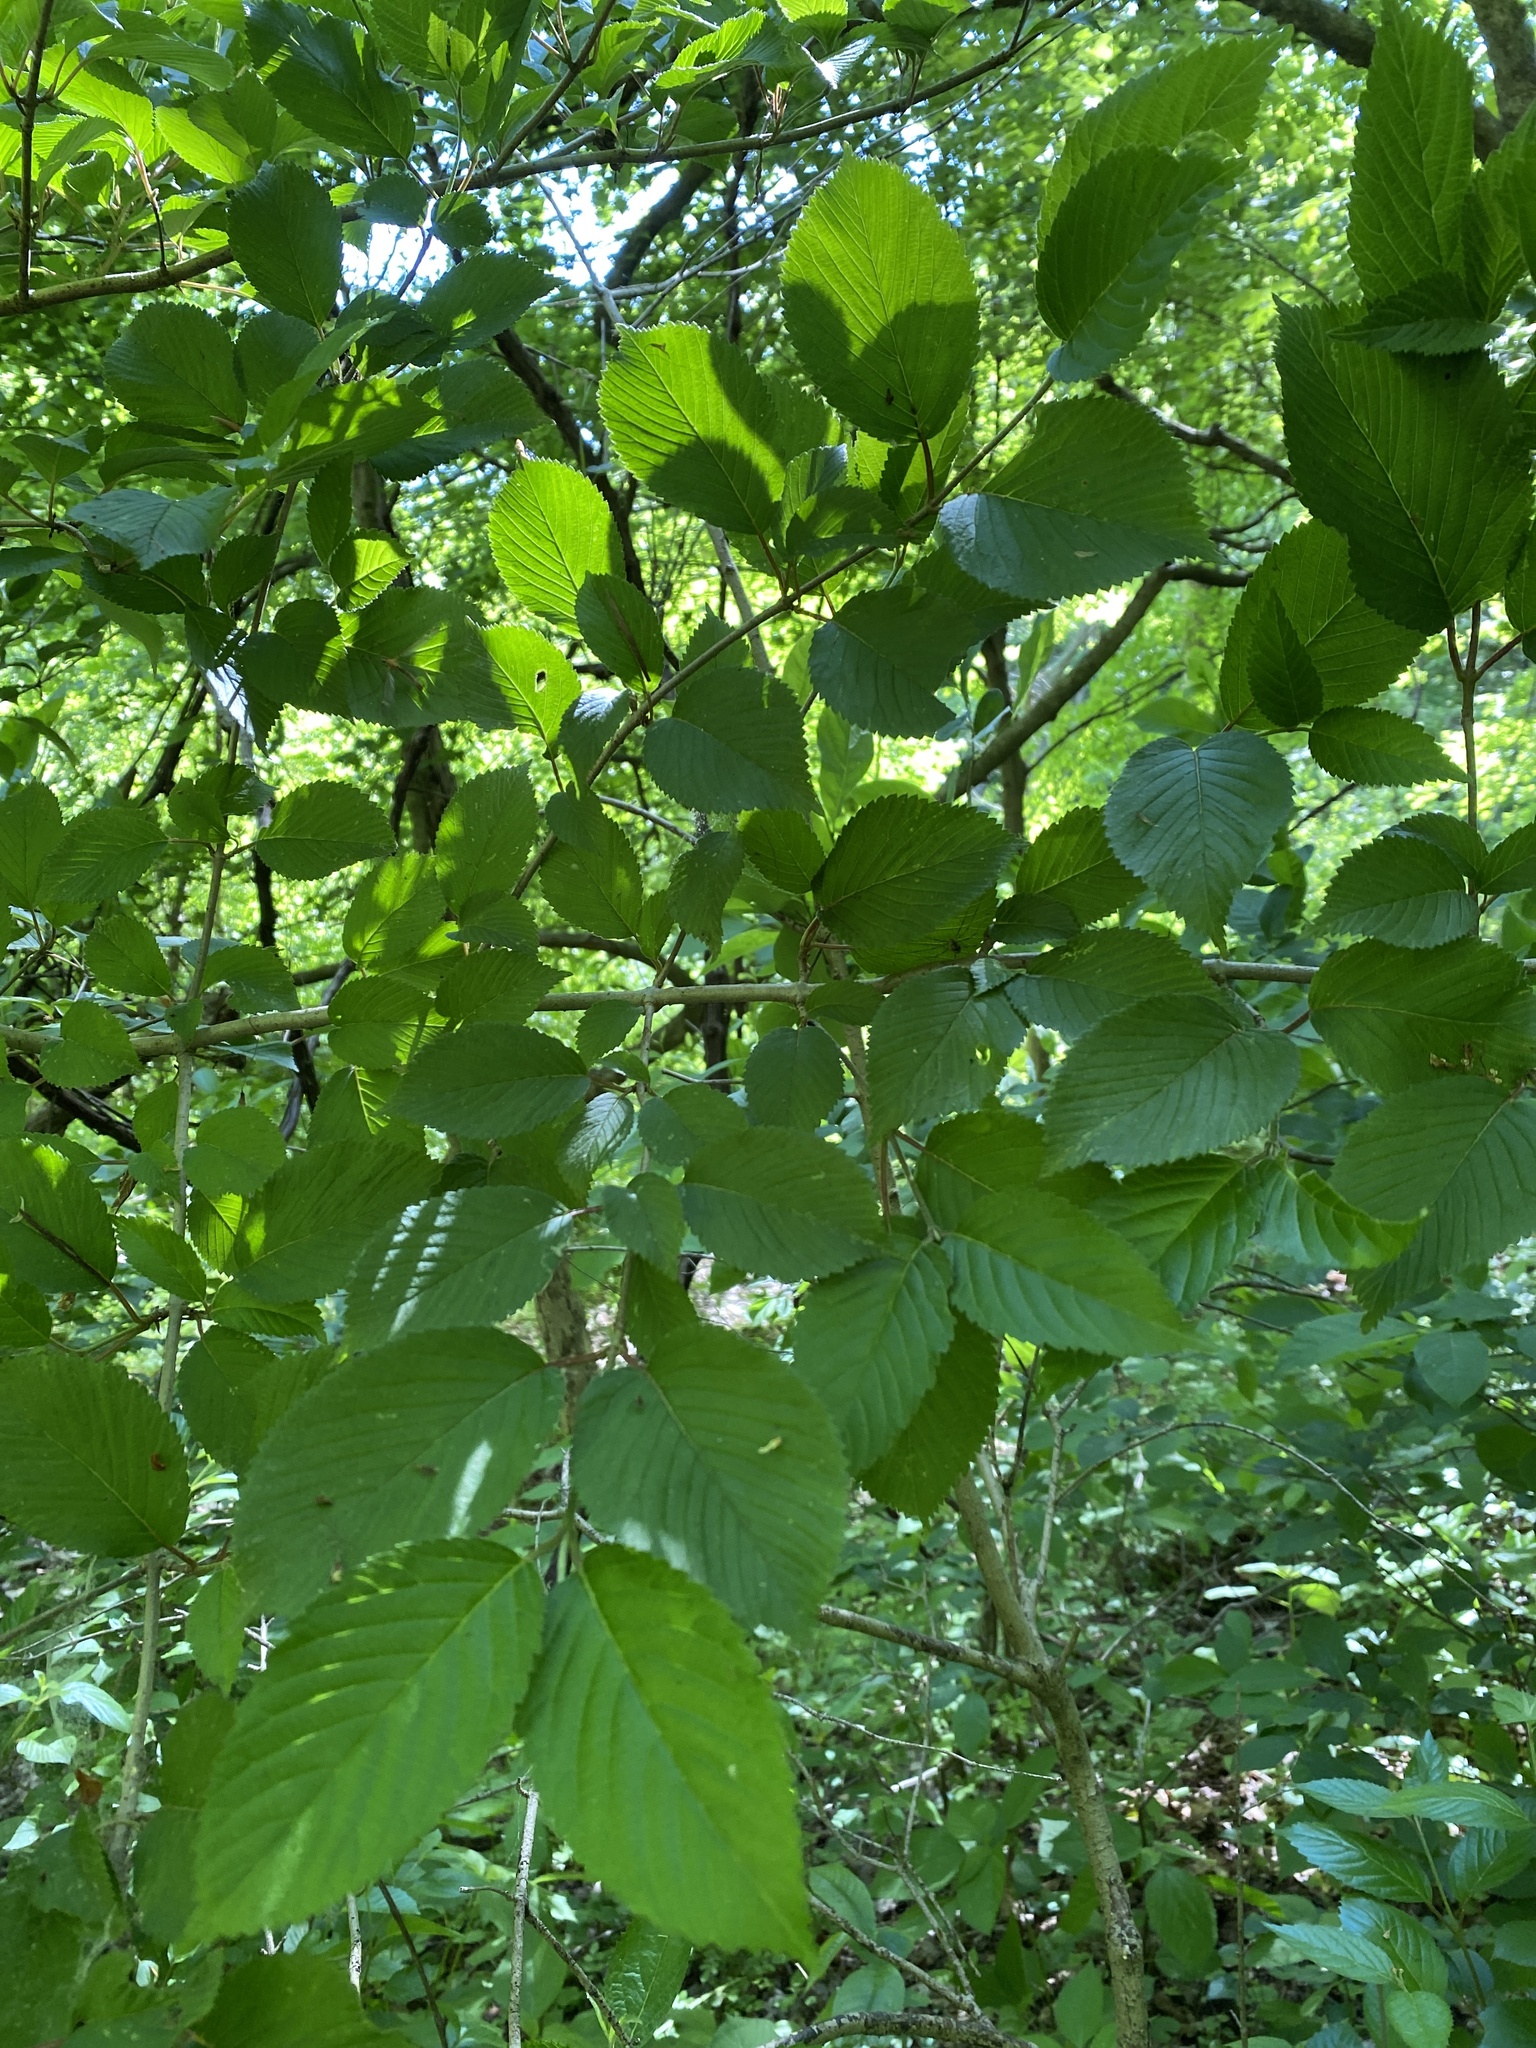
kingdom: Plantae
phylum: Tracheophyta
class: Magnoliopsida
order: Dipsacales
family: Viburnaceae
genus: Viburnum
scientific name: Viburnum plicatum
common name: Japanese snowball
